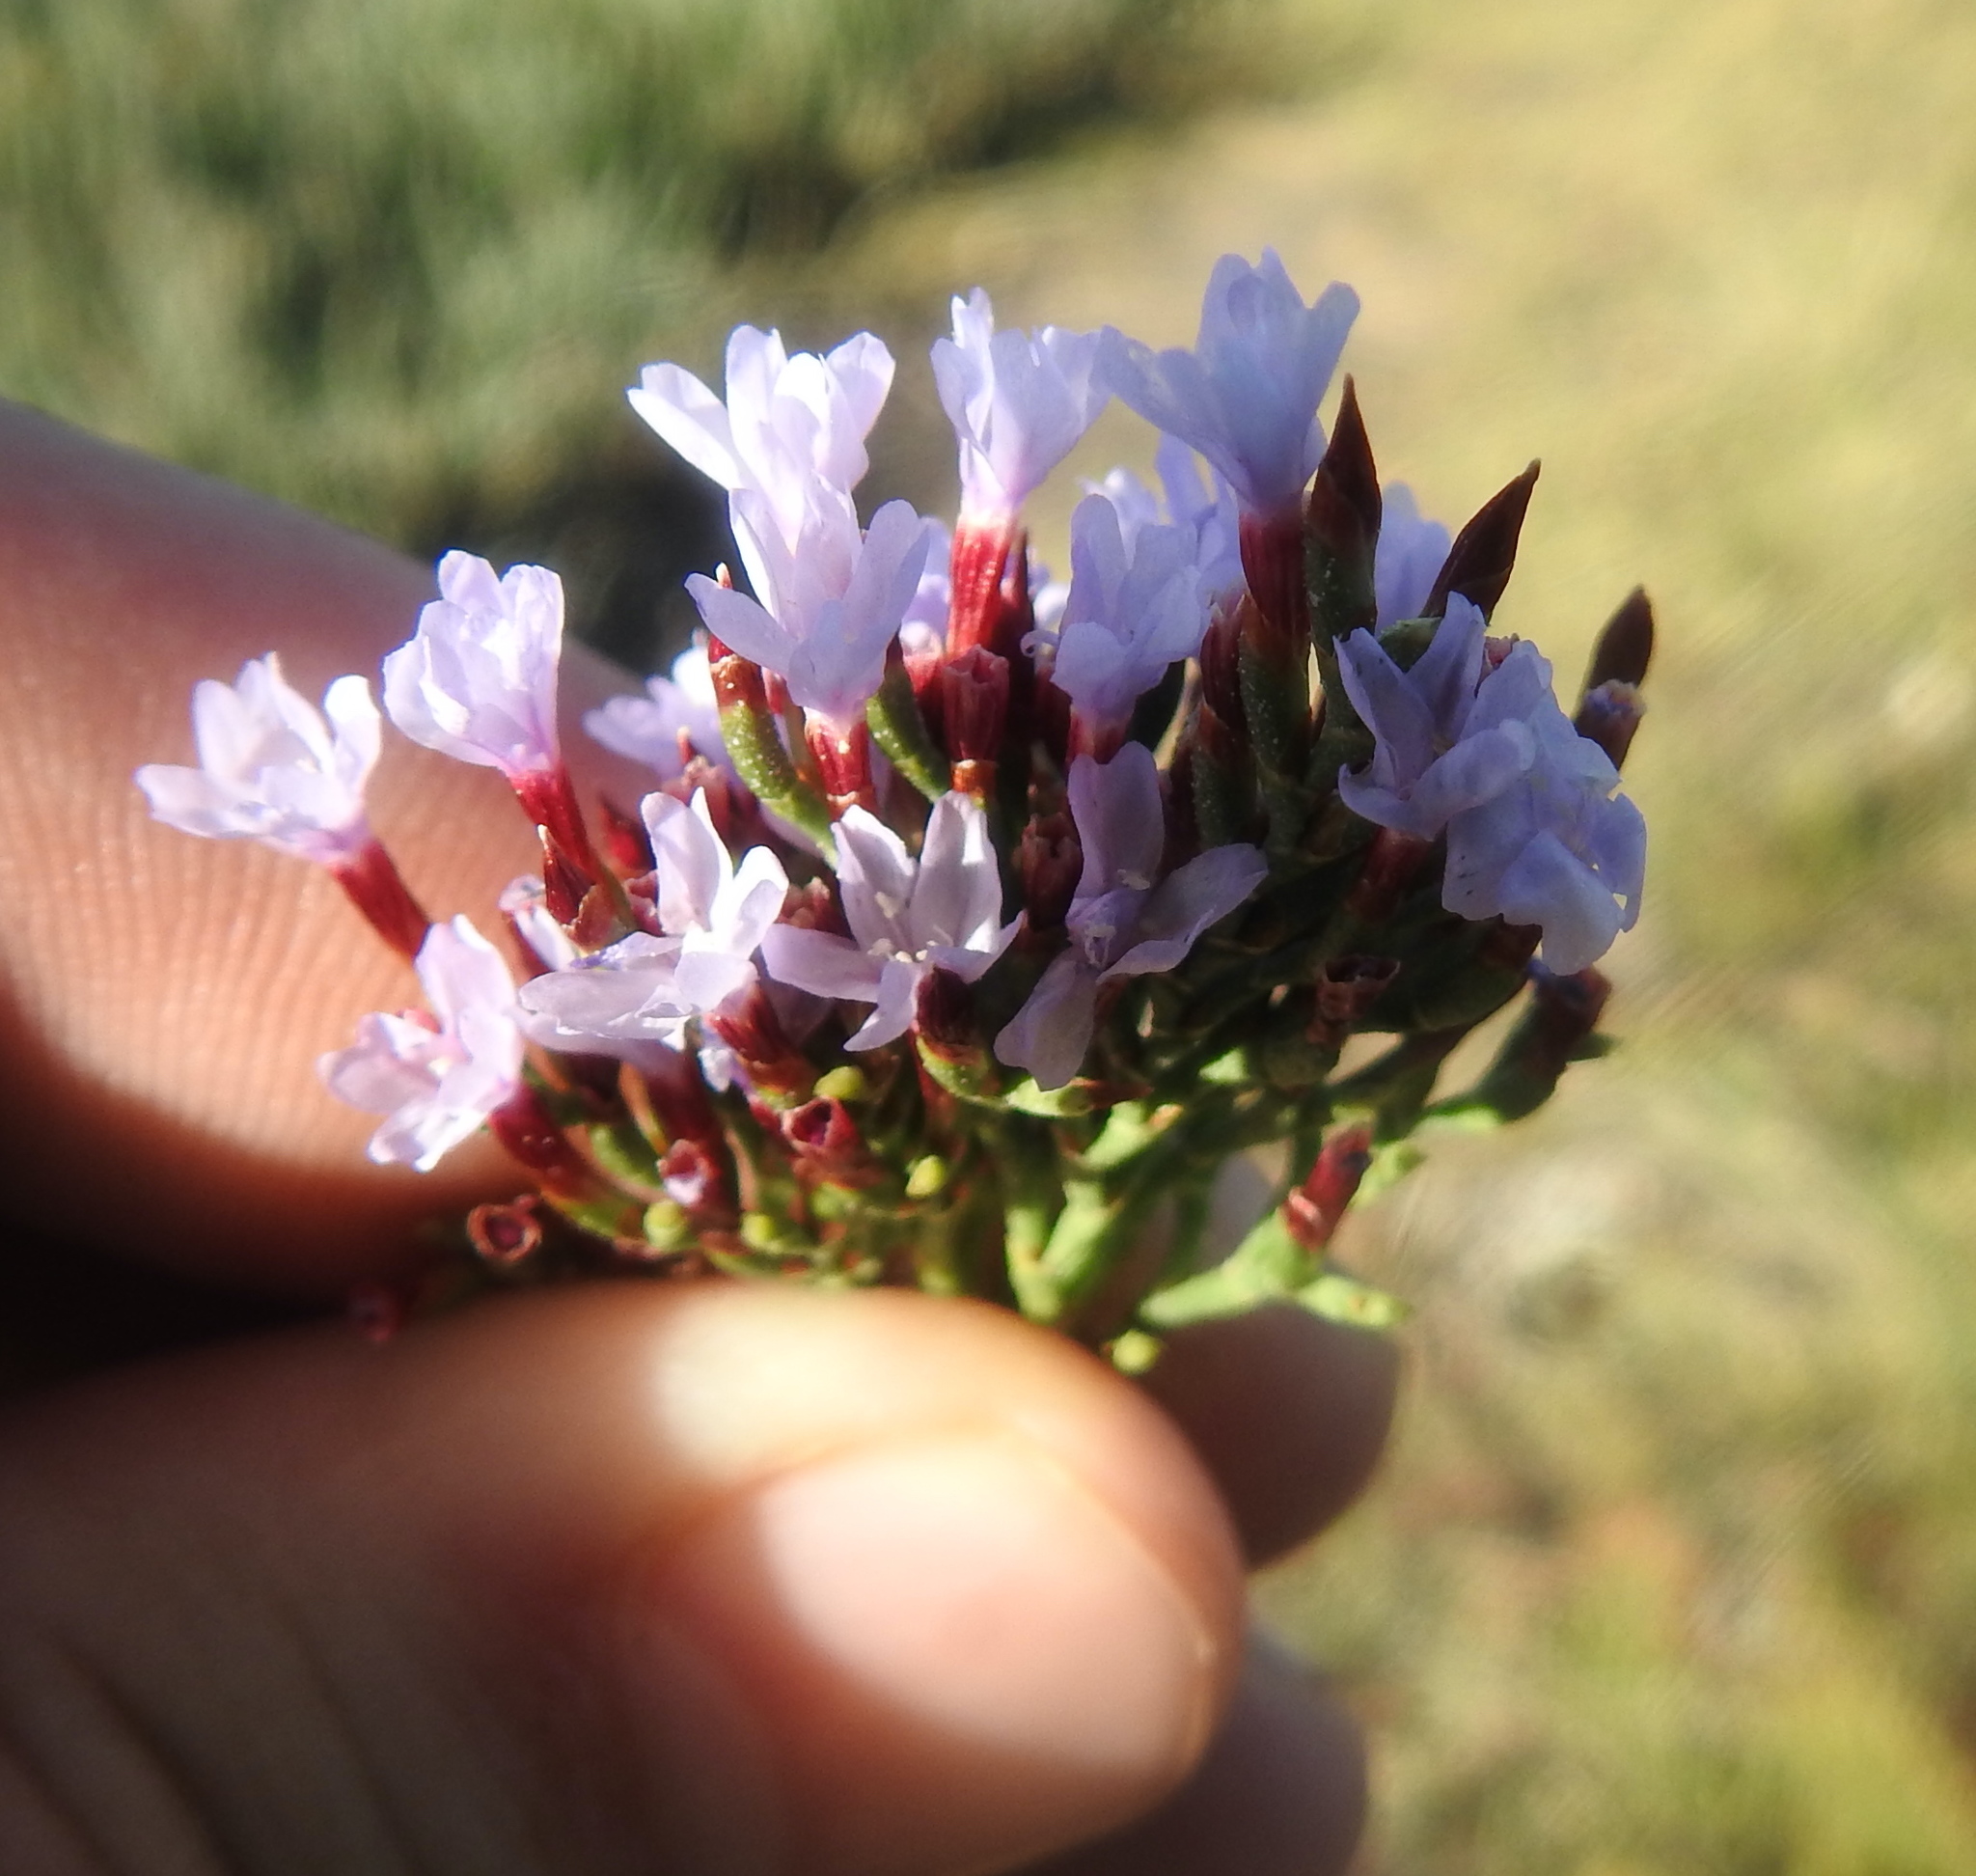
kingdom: Plantae
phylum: Tracheophyta
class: Magnoliopsida
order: Caryophyllales
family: Plumbaginaceae
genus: Limonium
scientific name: Limonium scabrum
